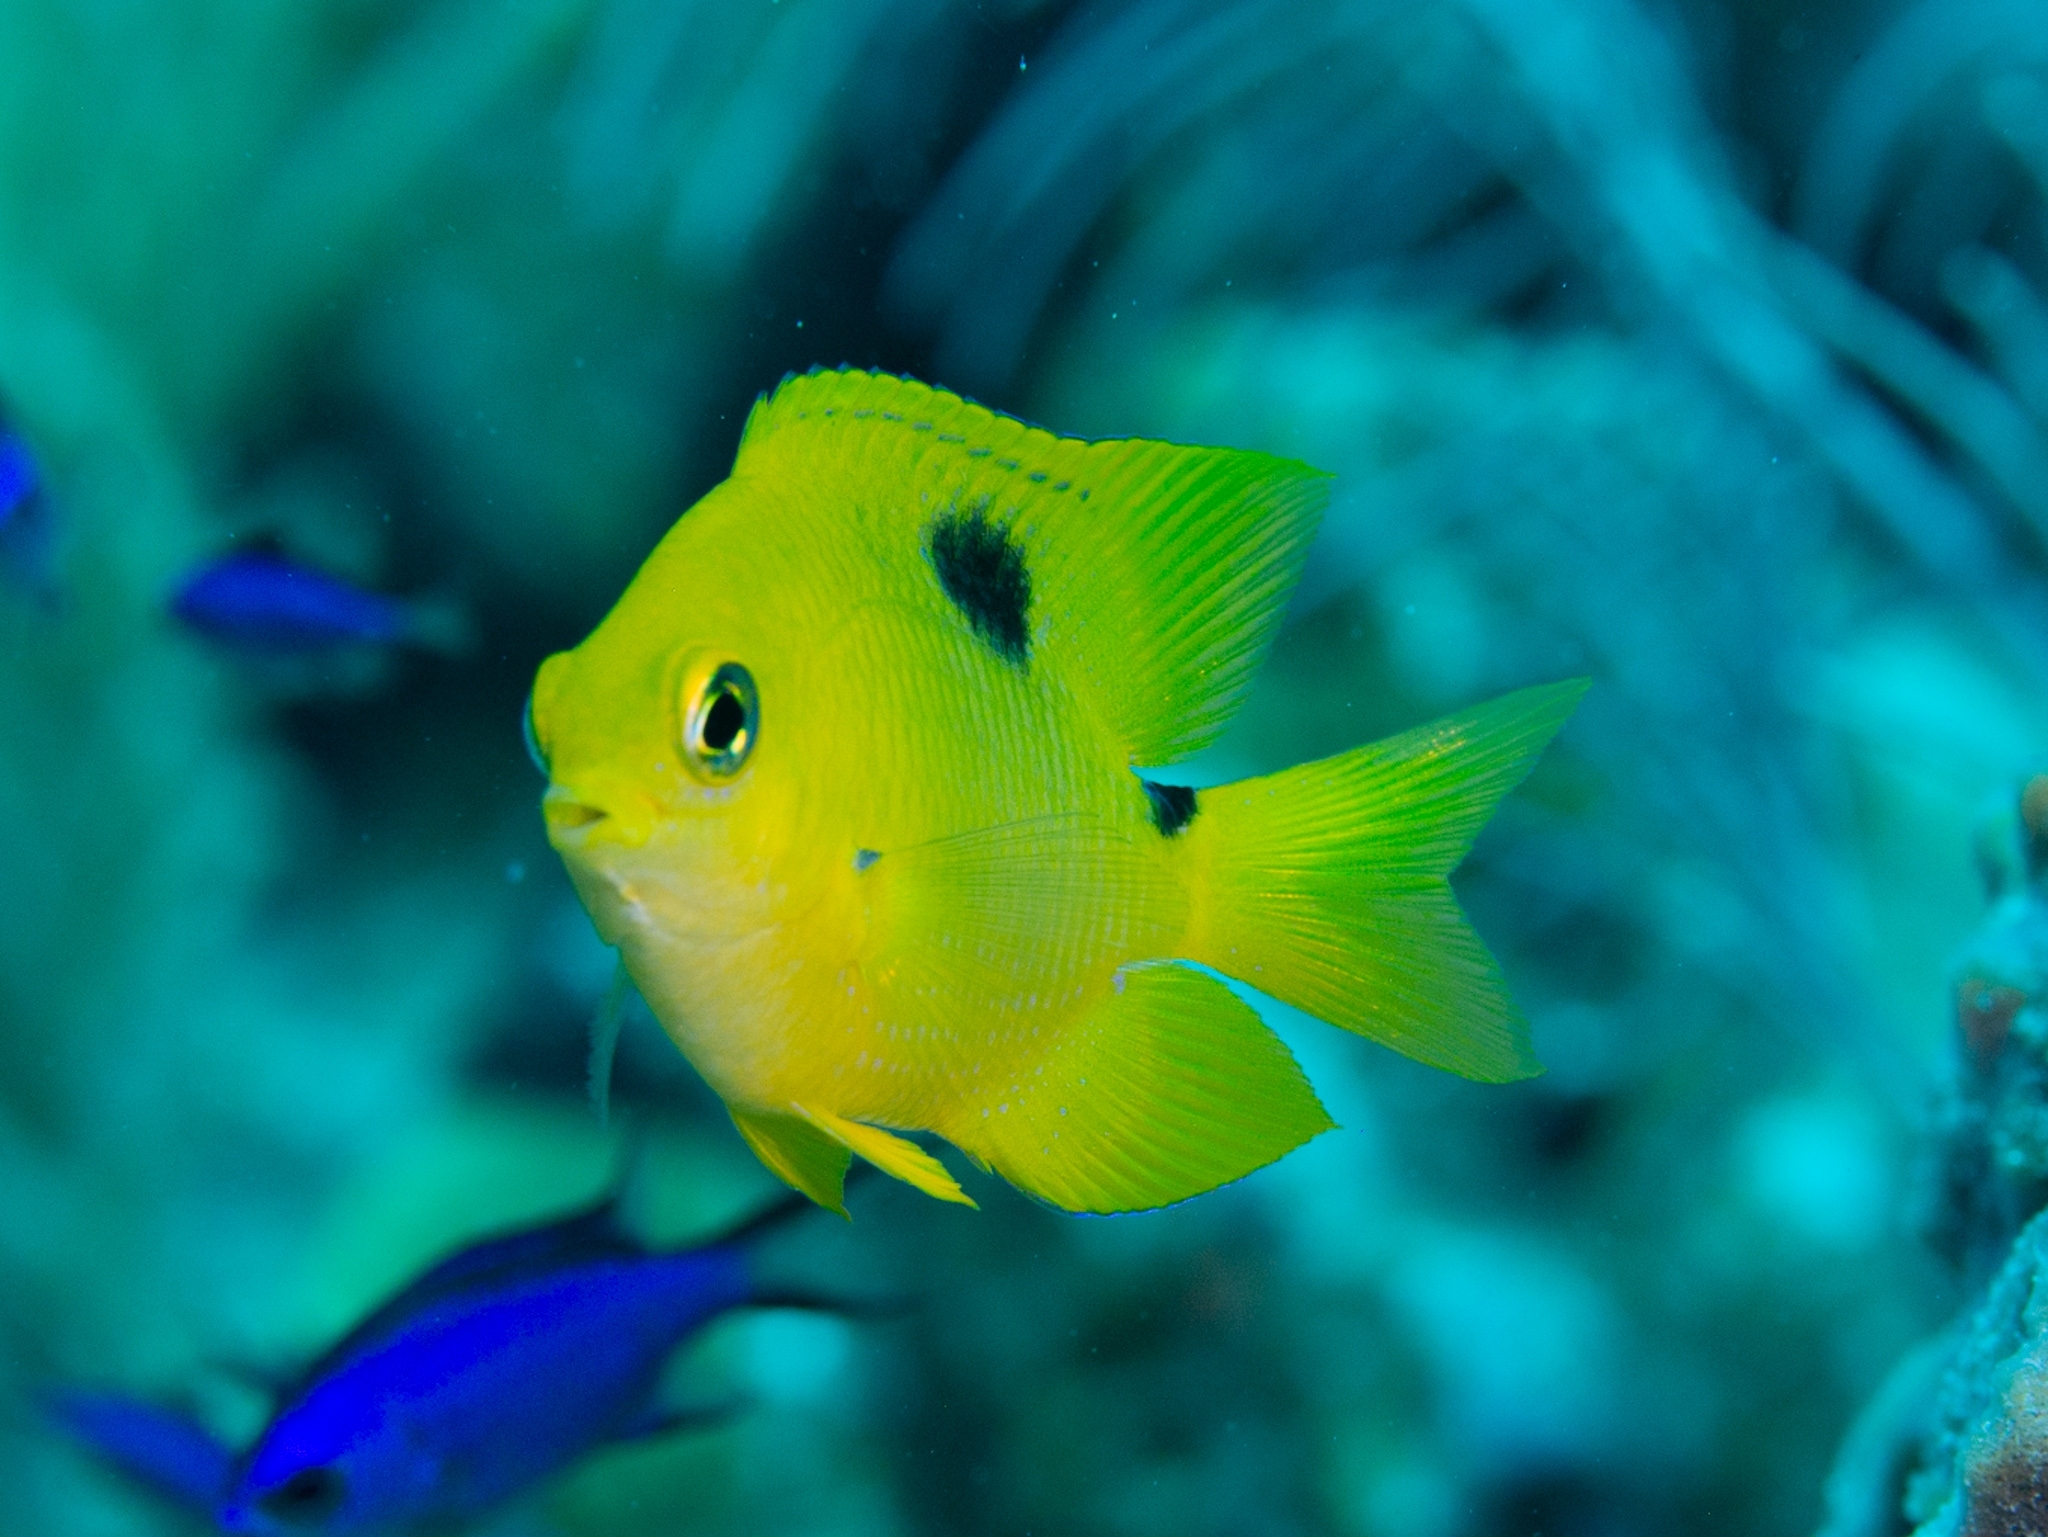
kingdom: Animalia
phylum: Chordata
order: Perciformes
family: Pomacentridae
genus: Stegastes
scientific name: Stegastes planifrons
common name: Threespot damselfish
